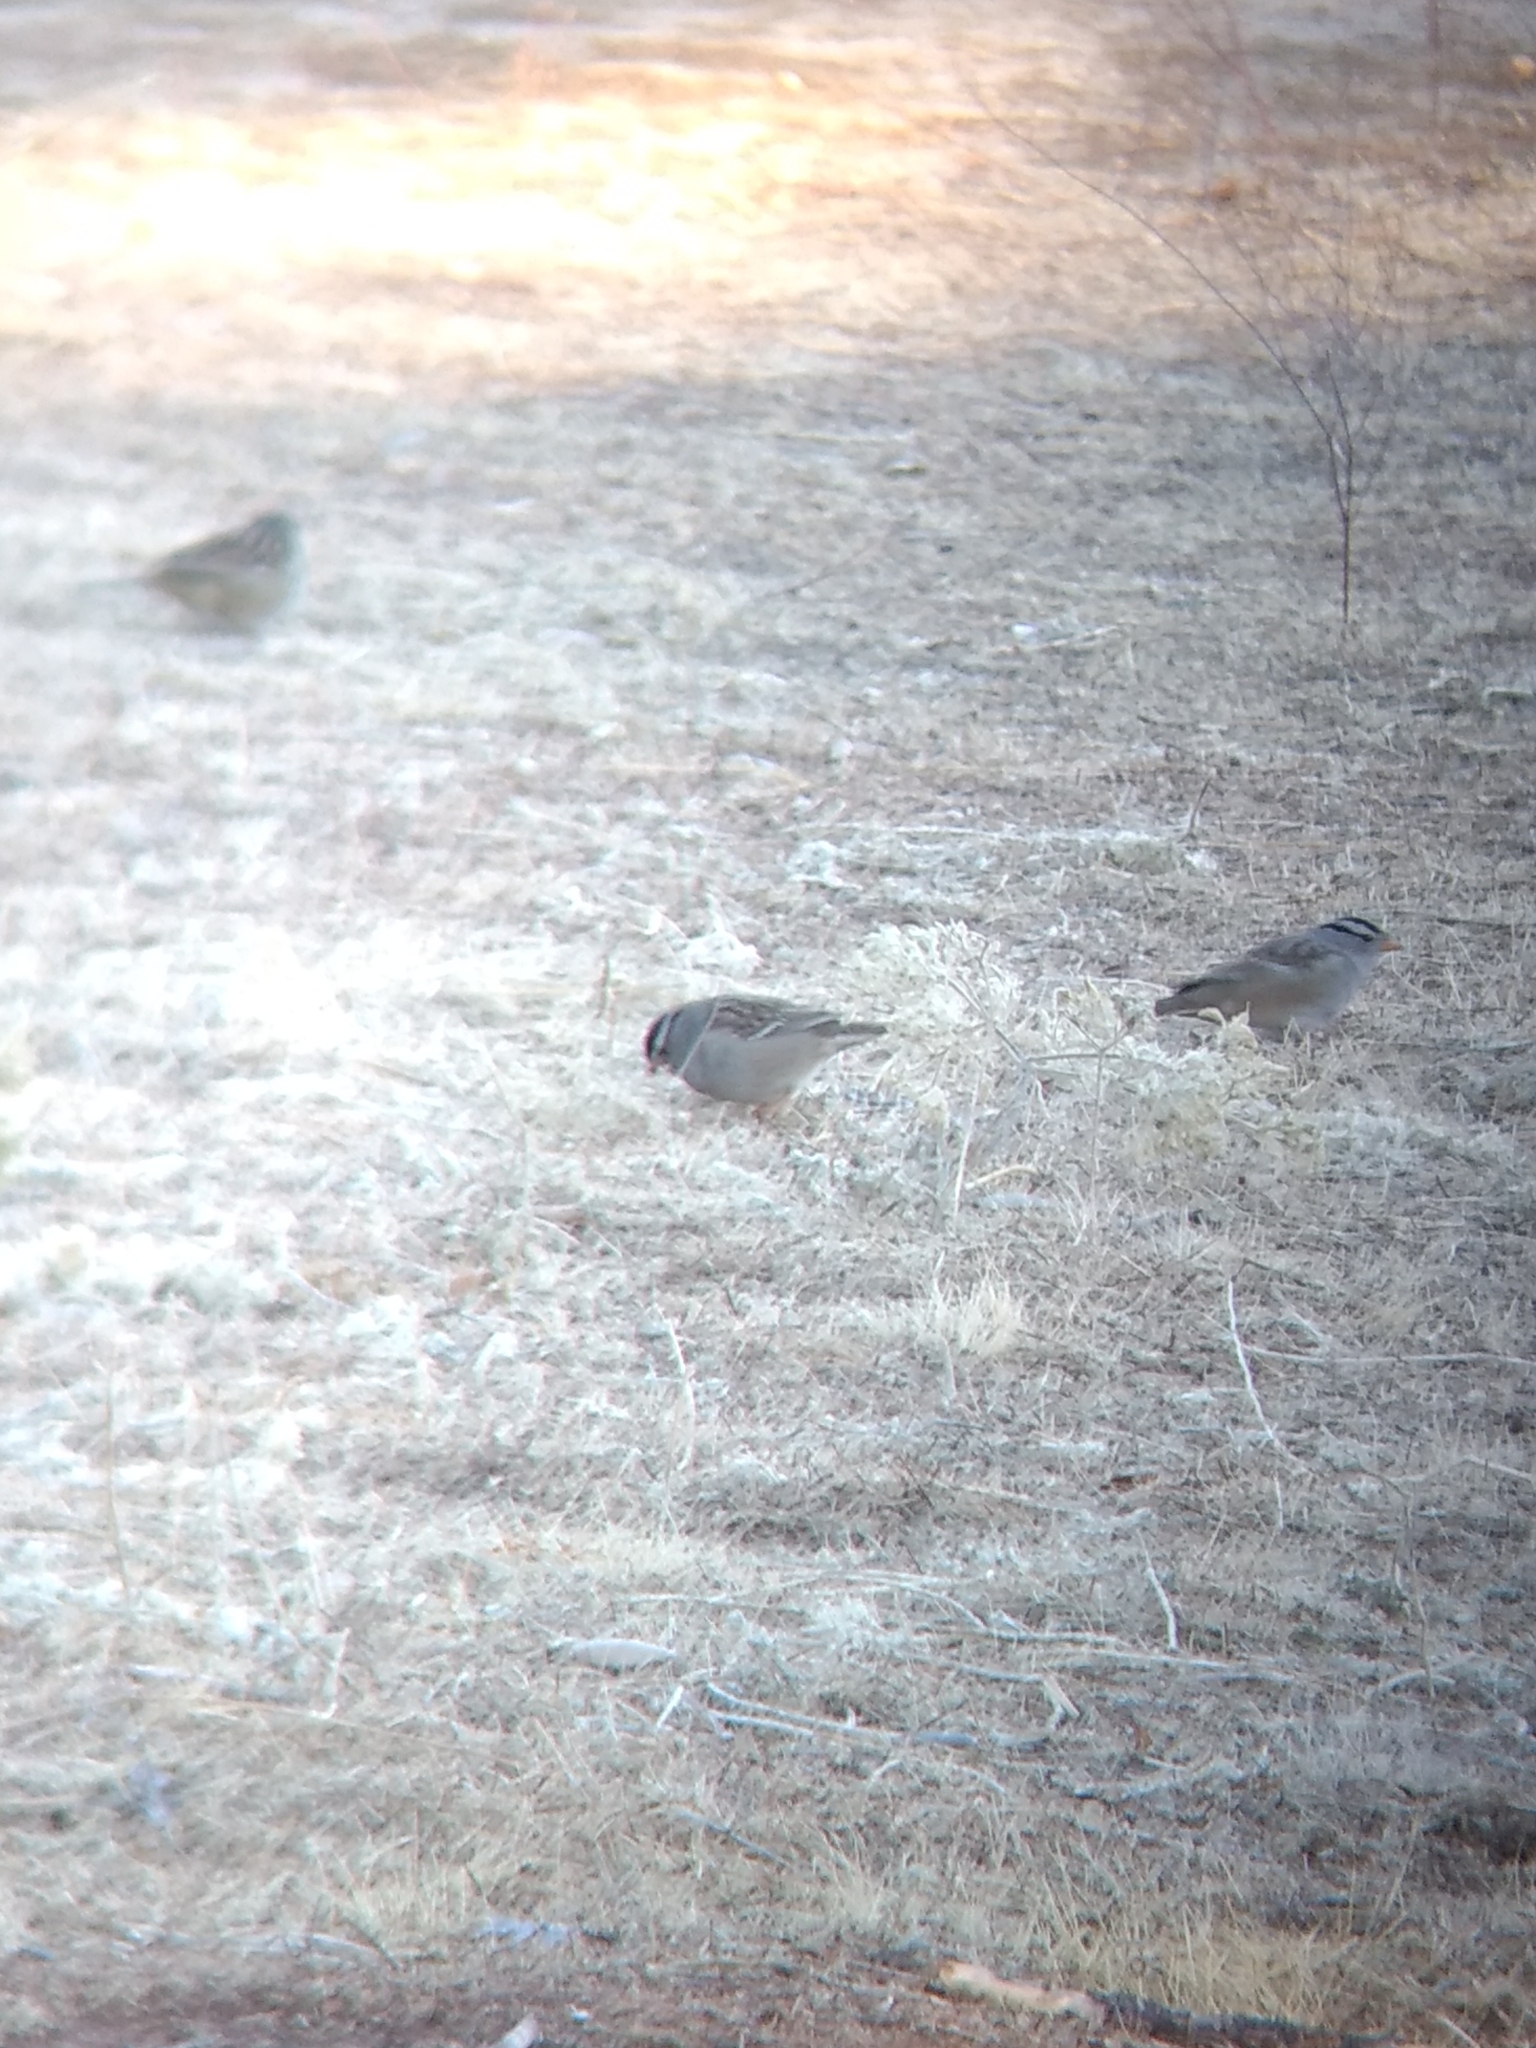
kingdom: Animalia
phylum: Chordata
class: Aves
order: Passeriformes
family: Passerellidae
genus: Zonotrichia
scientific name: Zonotrichia leucophrys
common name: White-crowned sparrow
